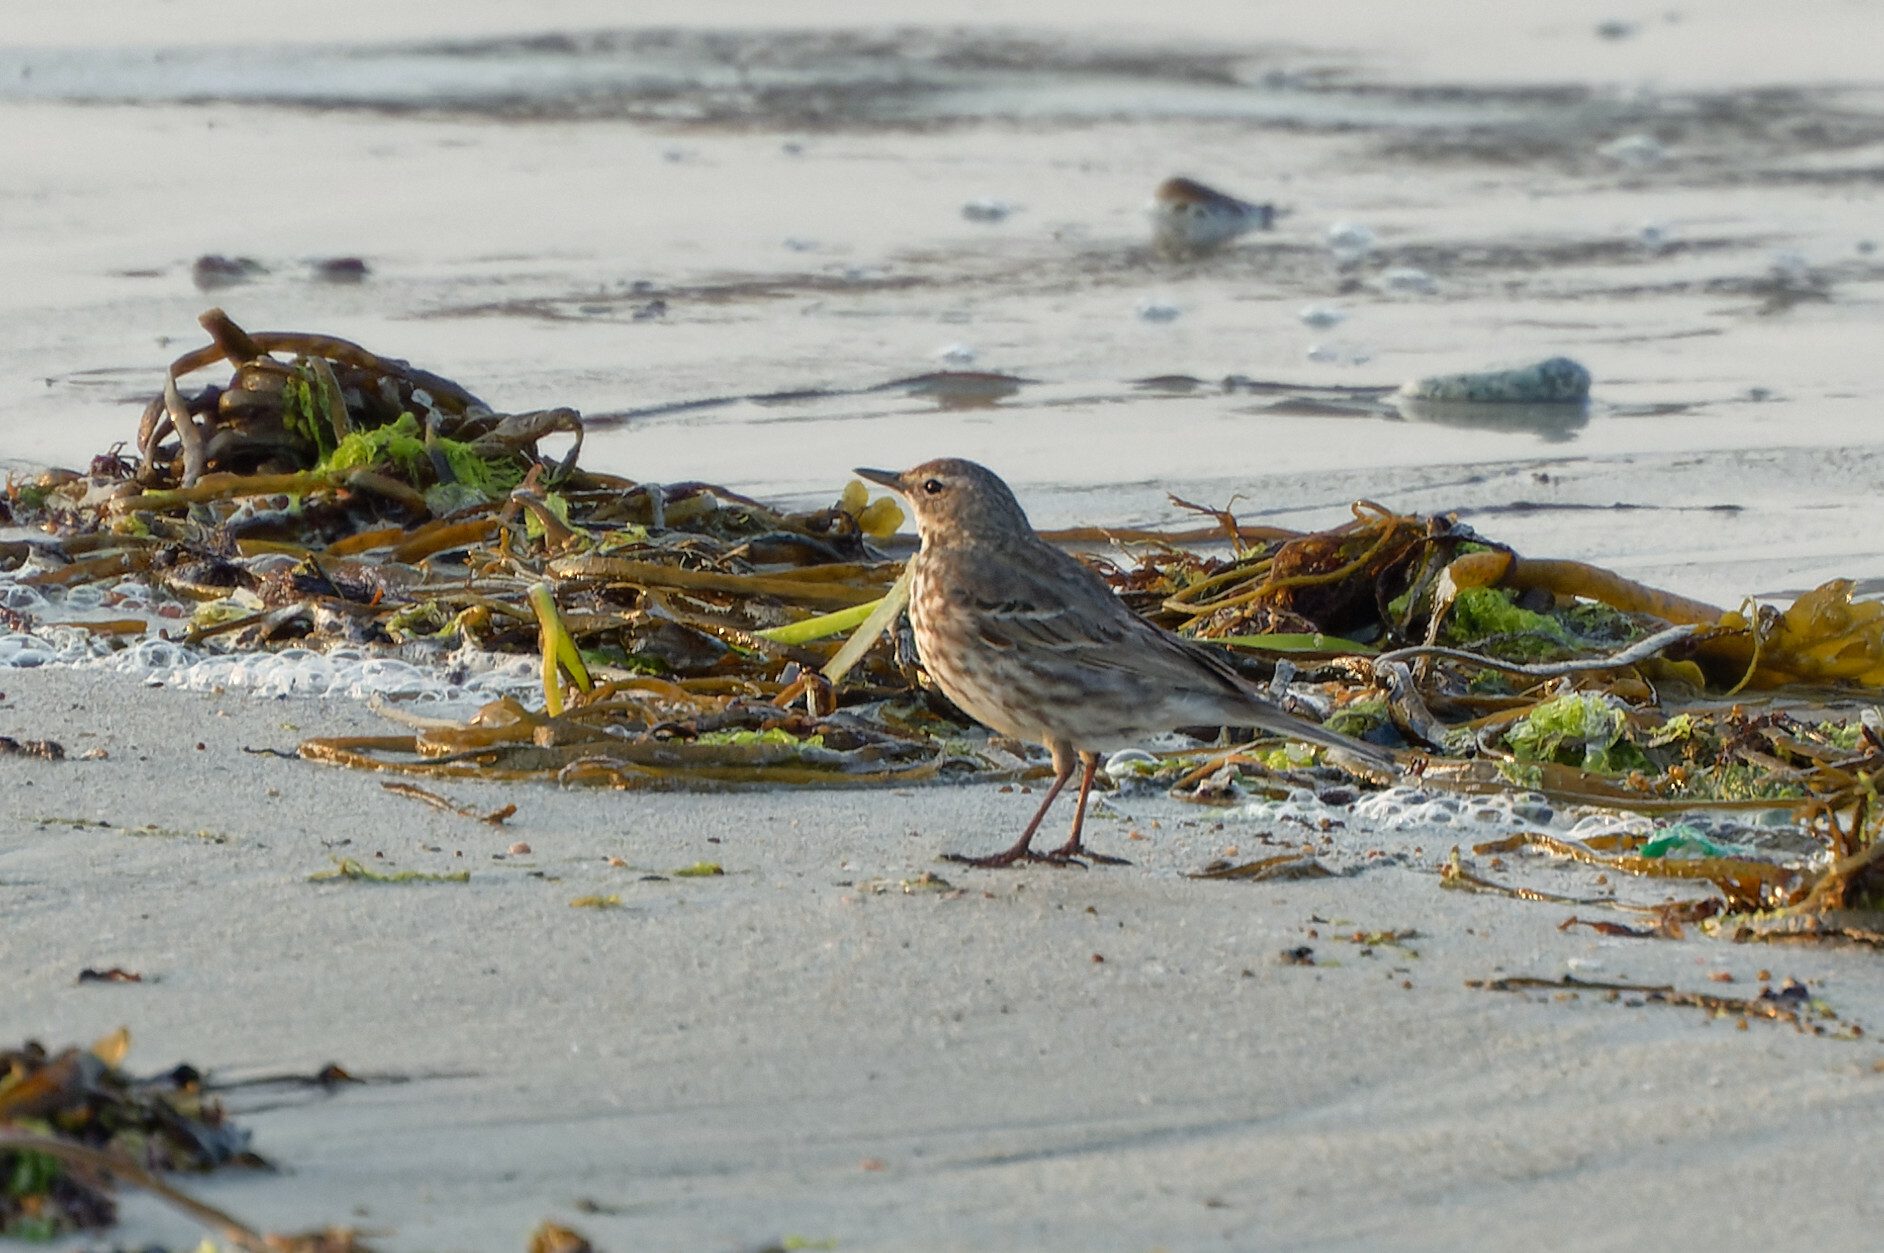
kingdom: Animalia
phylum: Chordata
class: Aves
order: Passeriformes
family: Motacillidae
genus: Anthus
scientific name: Anthus petrosus
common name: Eurasian rock pipit
